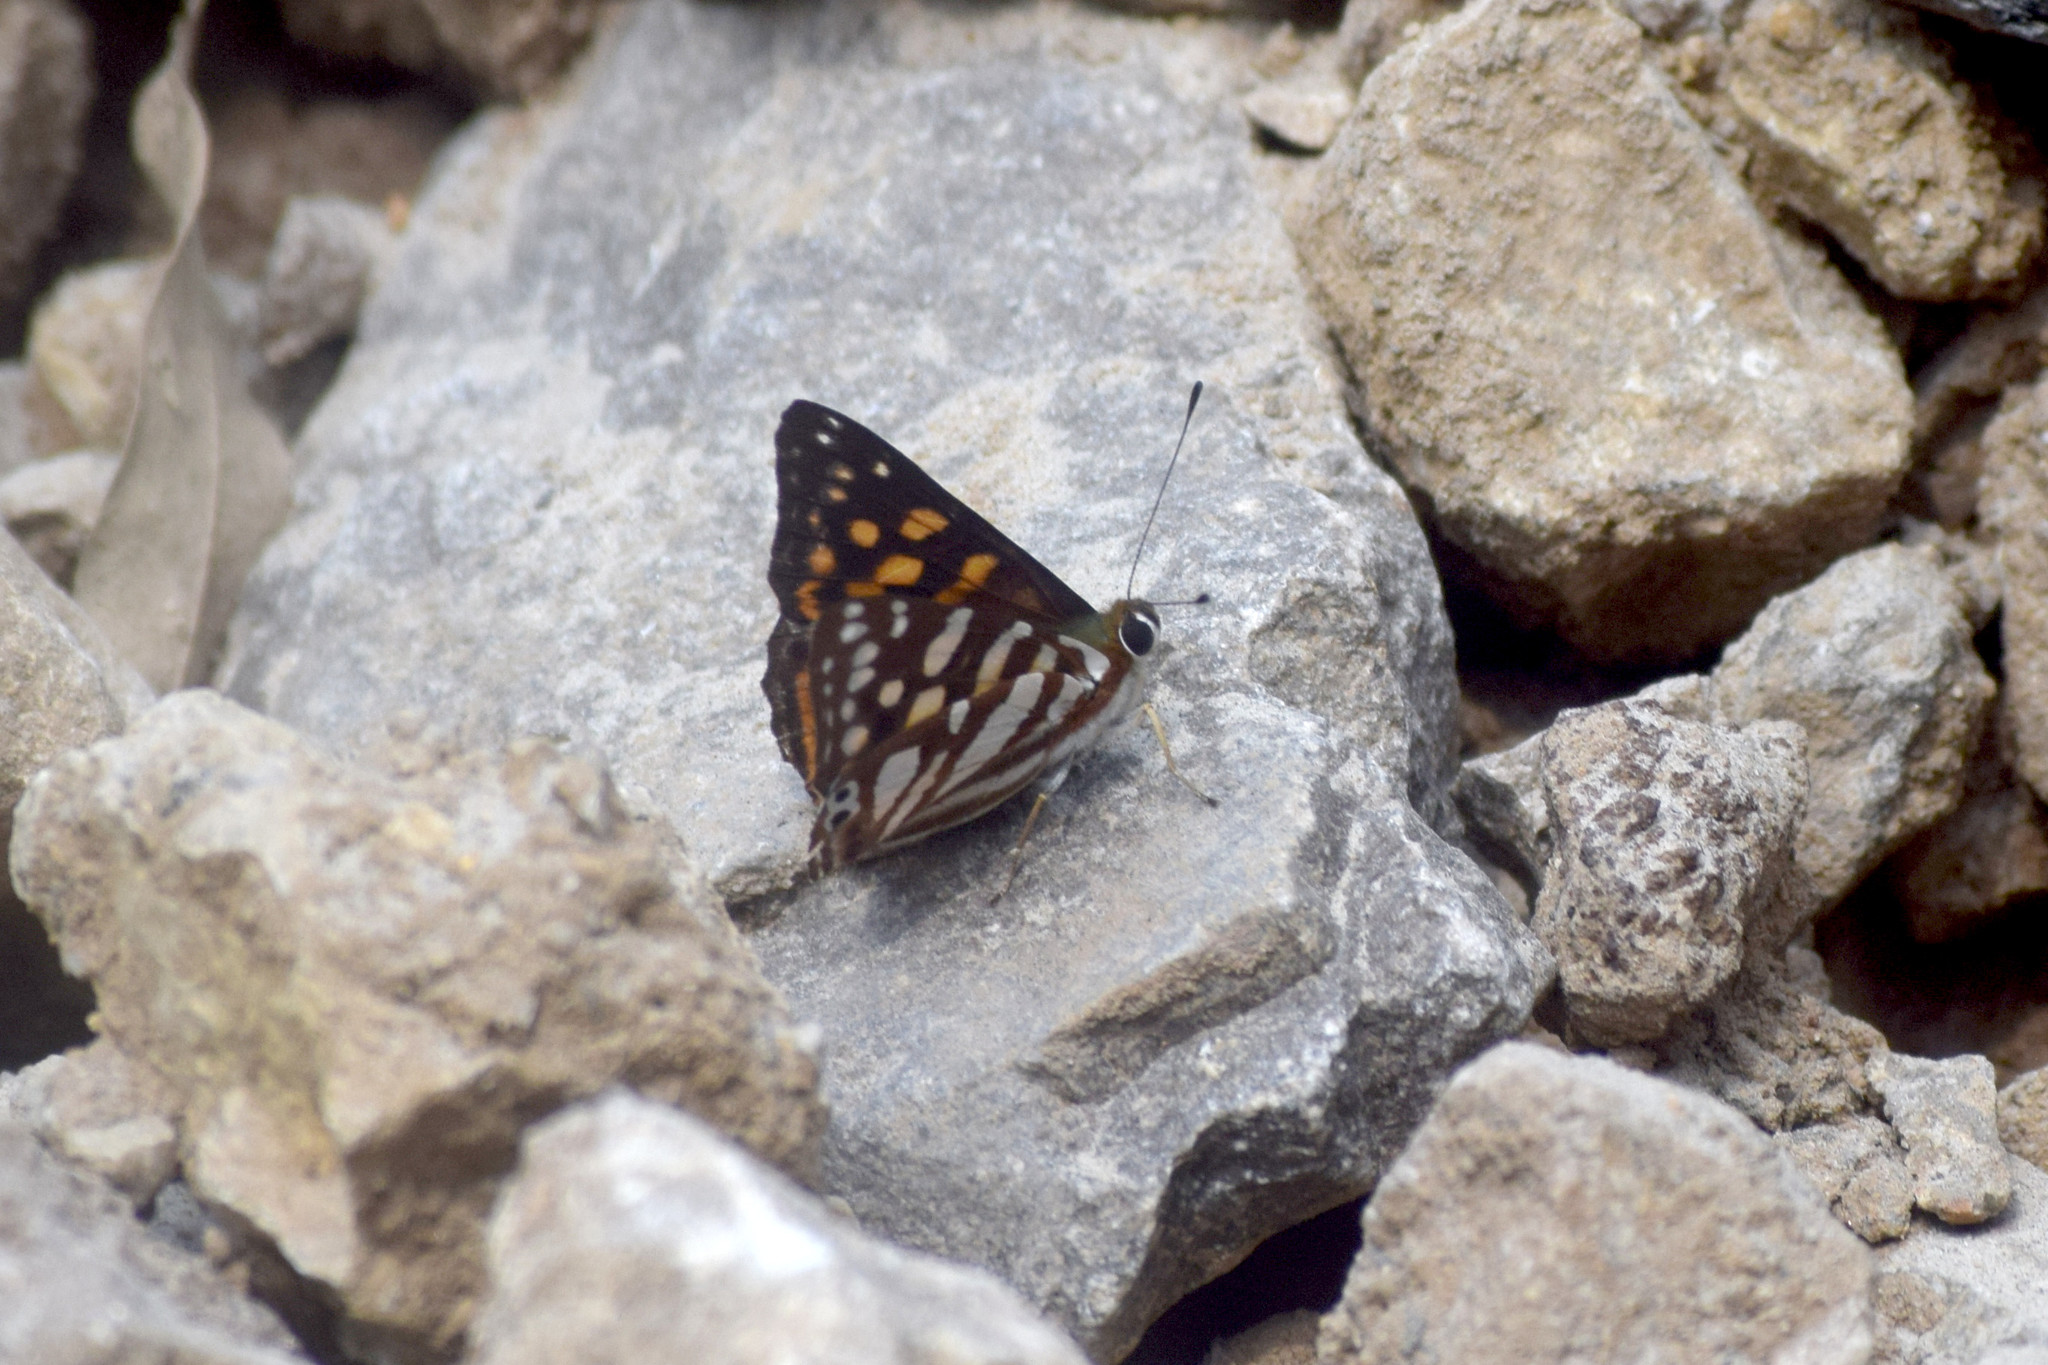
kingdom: Animalia
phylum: Arthropoda
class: Insecta
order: Lepidoptera
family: Lycaenidae
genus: Dodona
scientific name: Dodona egeon
